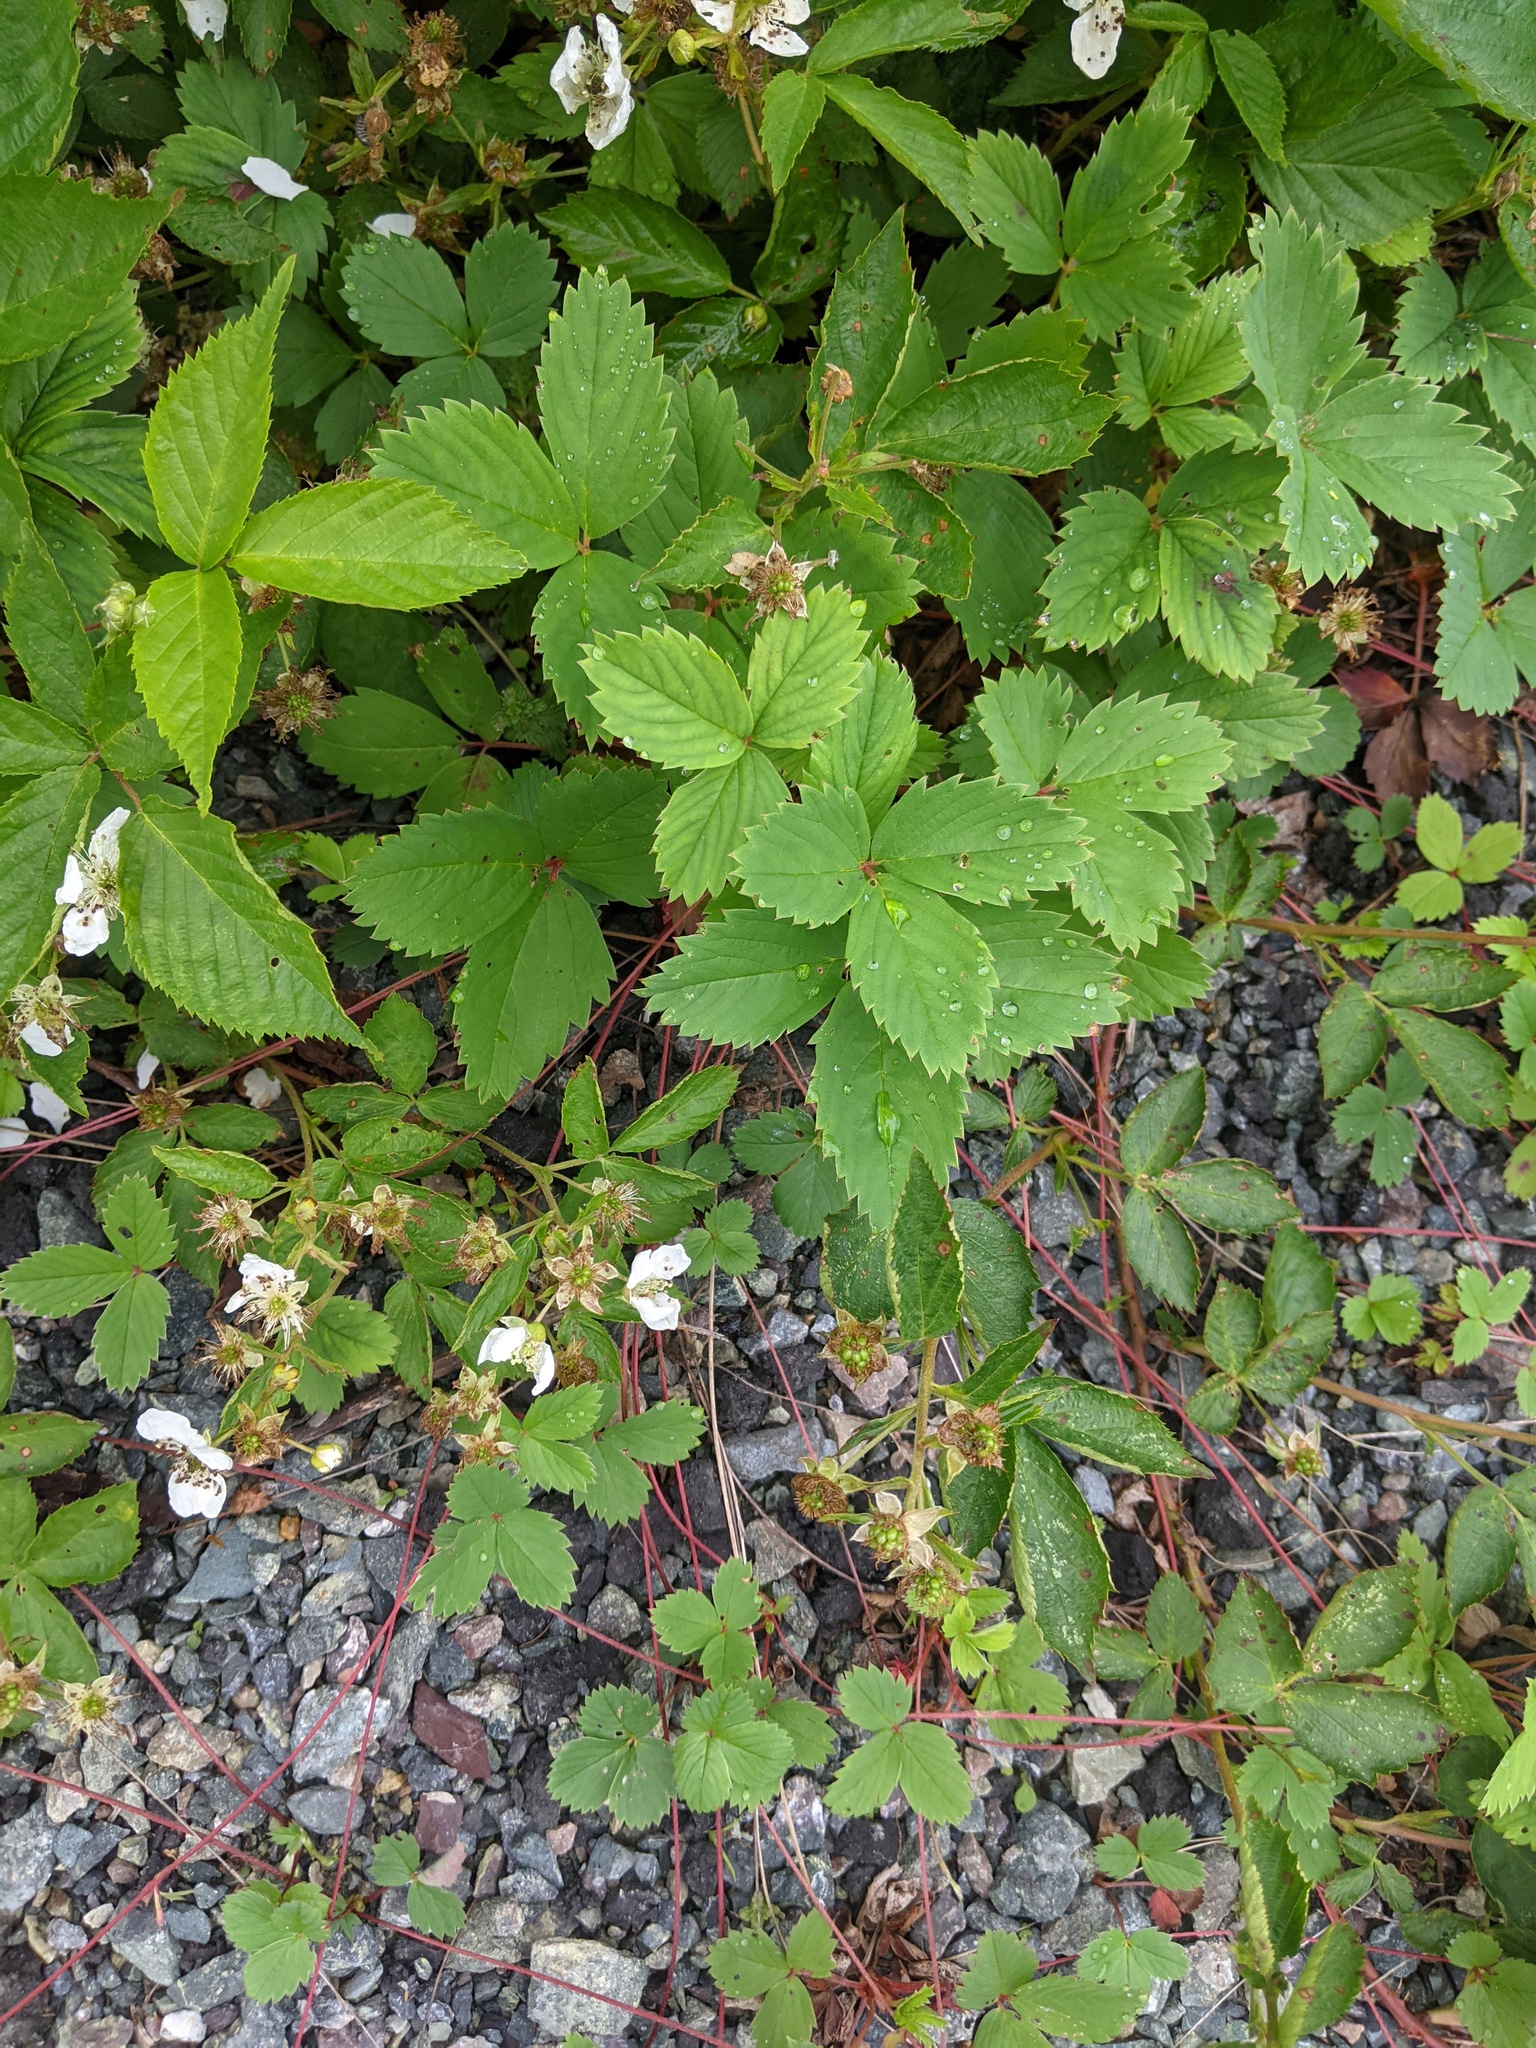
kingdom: Plantae
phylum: Tracheophyta
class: Magnoliopsida
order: Rosales
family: Rosaceae
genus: Fragaria
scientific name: Fragaria virginiana
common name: Thickleaved wild strawberry
